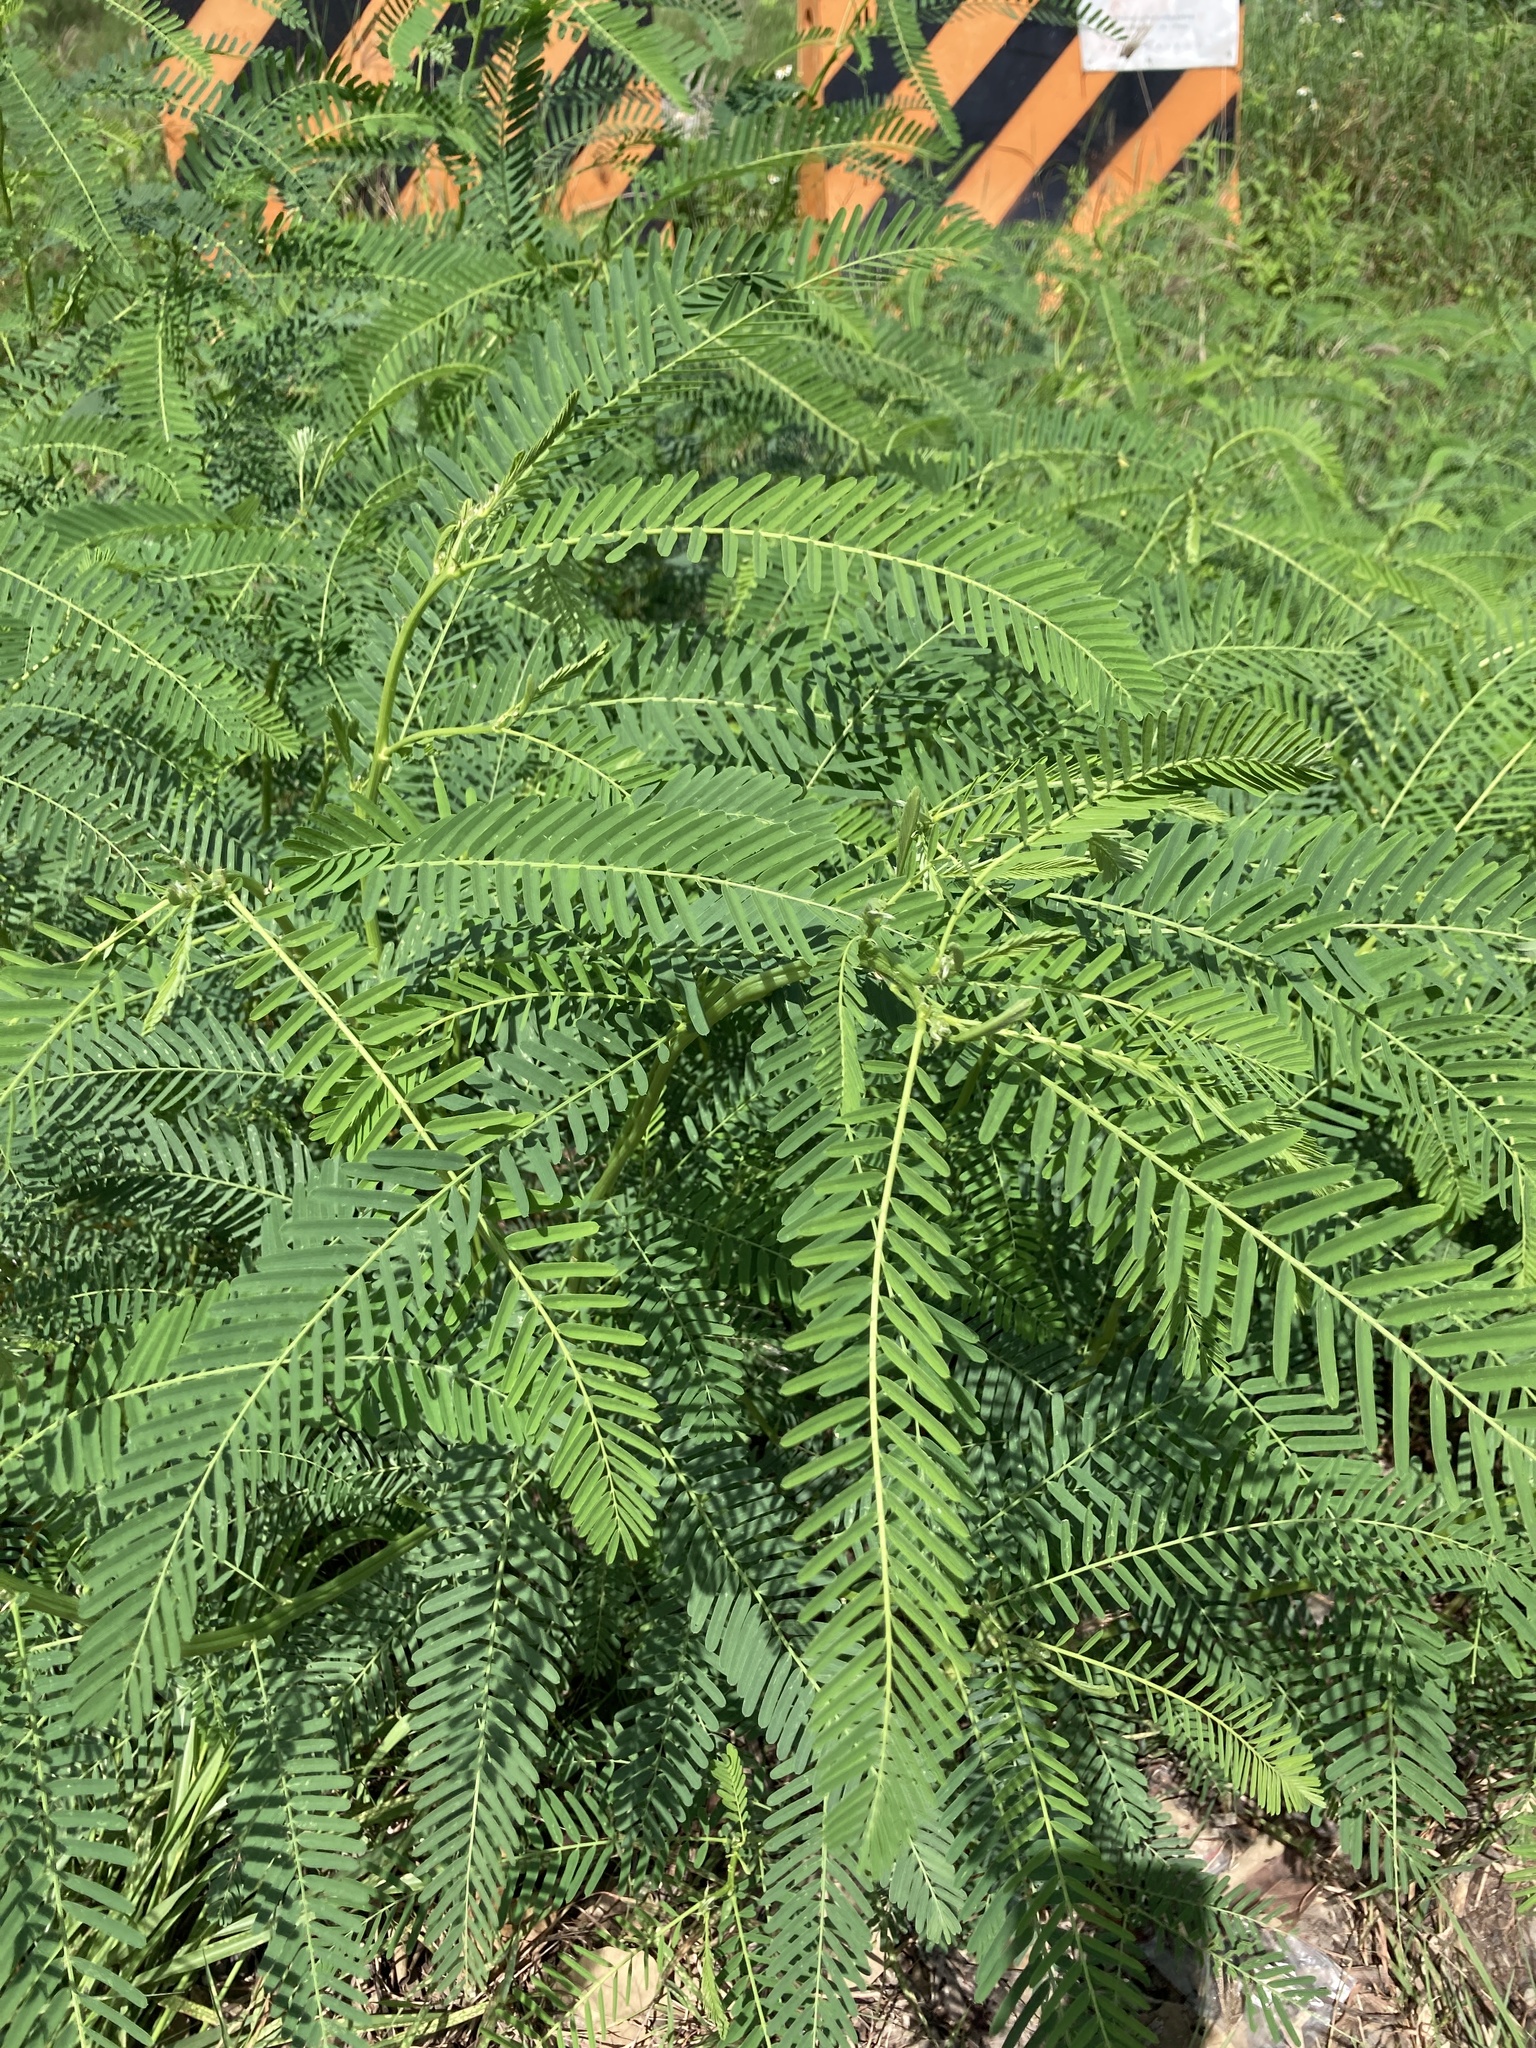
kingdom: Plantae
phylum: Tracheophyta
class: Magnoliopsida
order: Fabales
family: Fabaceae
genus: Sesbania
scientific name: Sesbania cannabina
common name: Canicha
